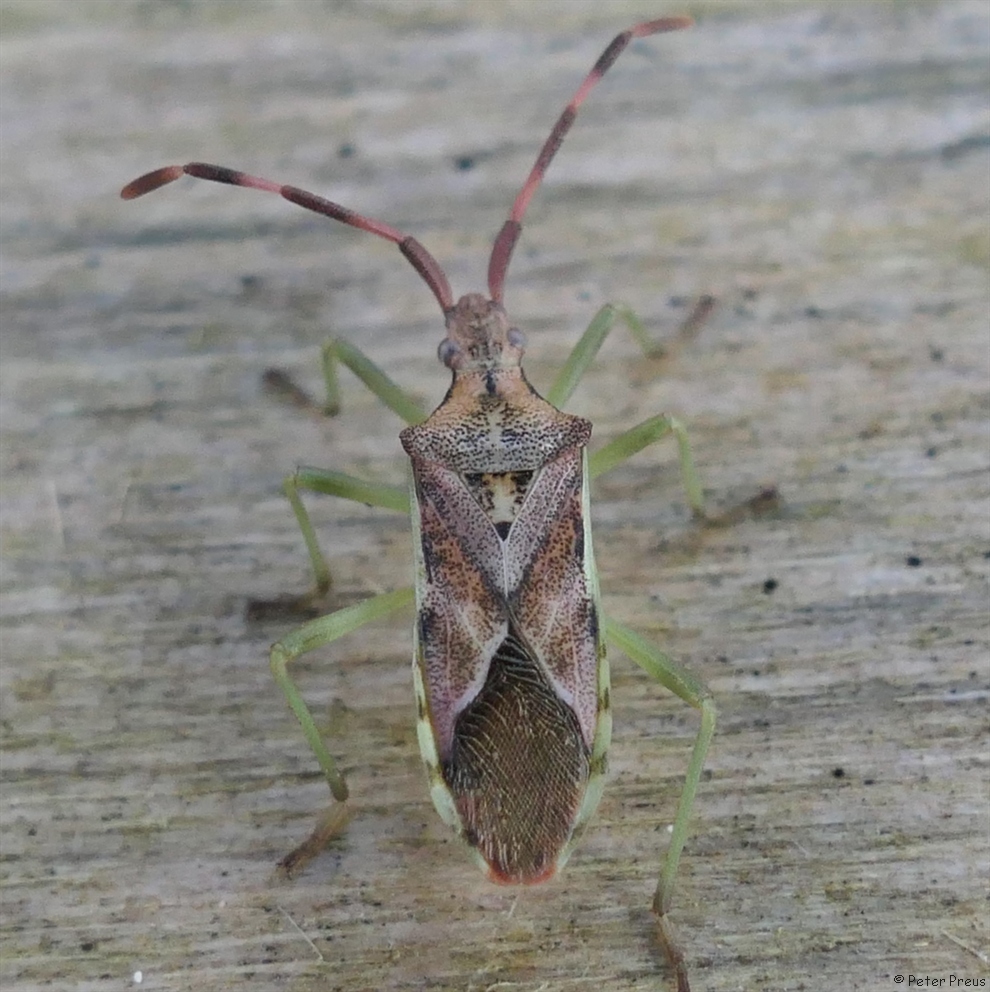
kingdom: Animalia
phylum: Arthropoda
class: Insecta
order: Hemiptera
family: Coreidae
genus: Gonocerus
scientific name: Gonocerus juniperi
